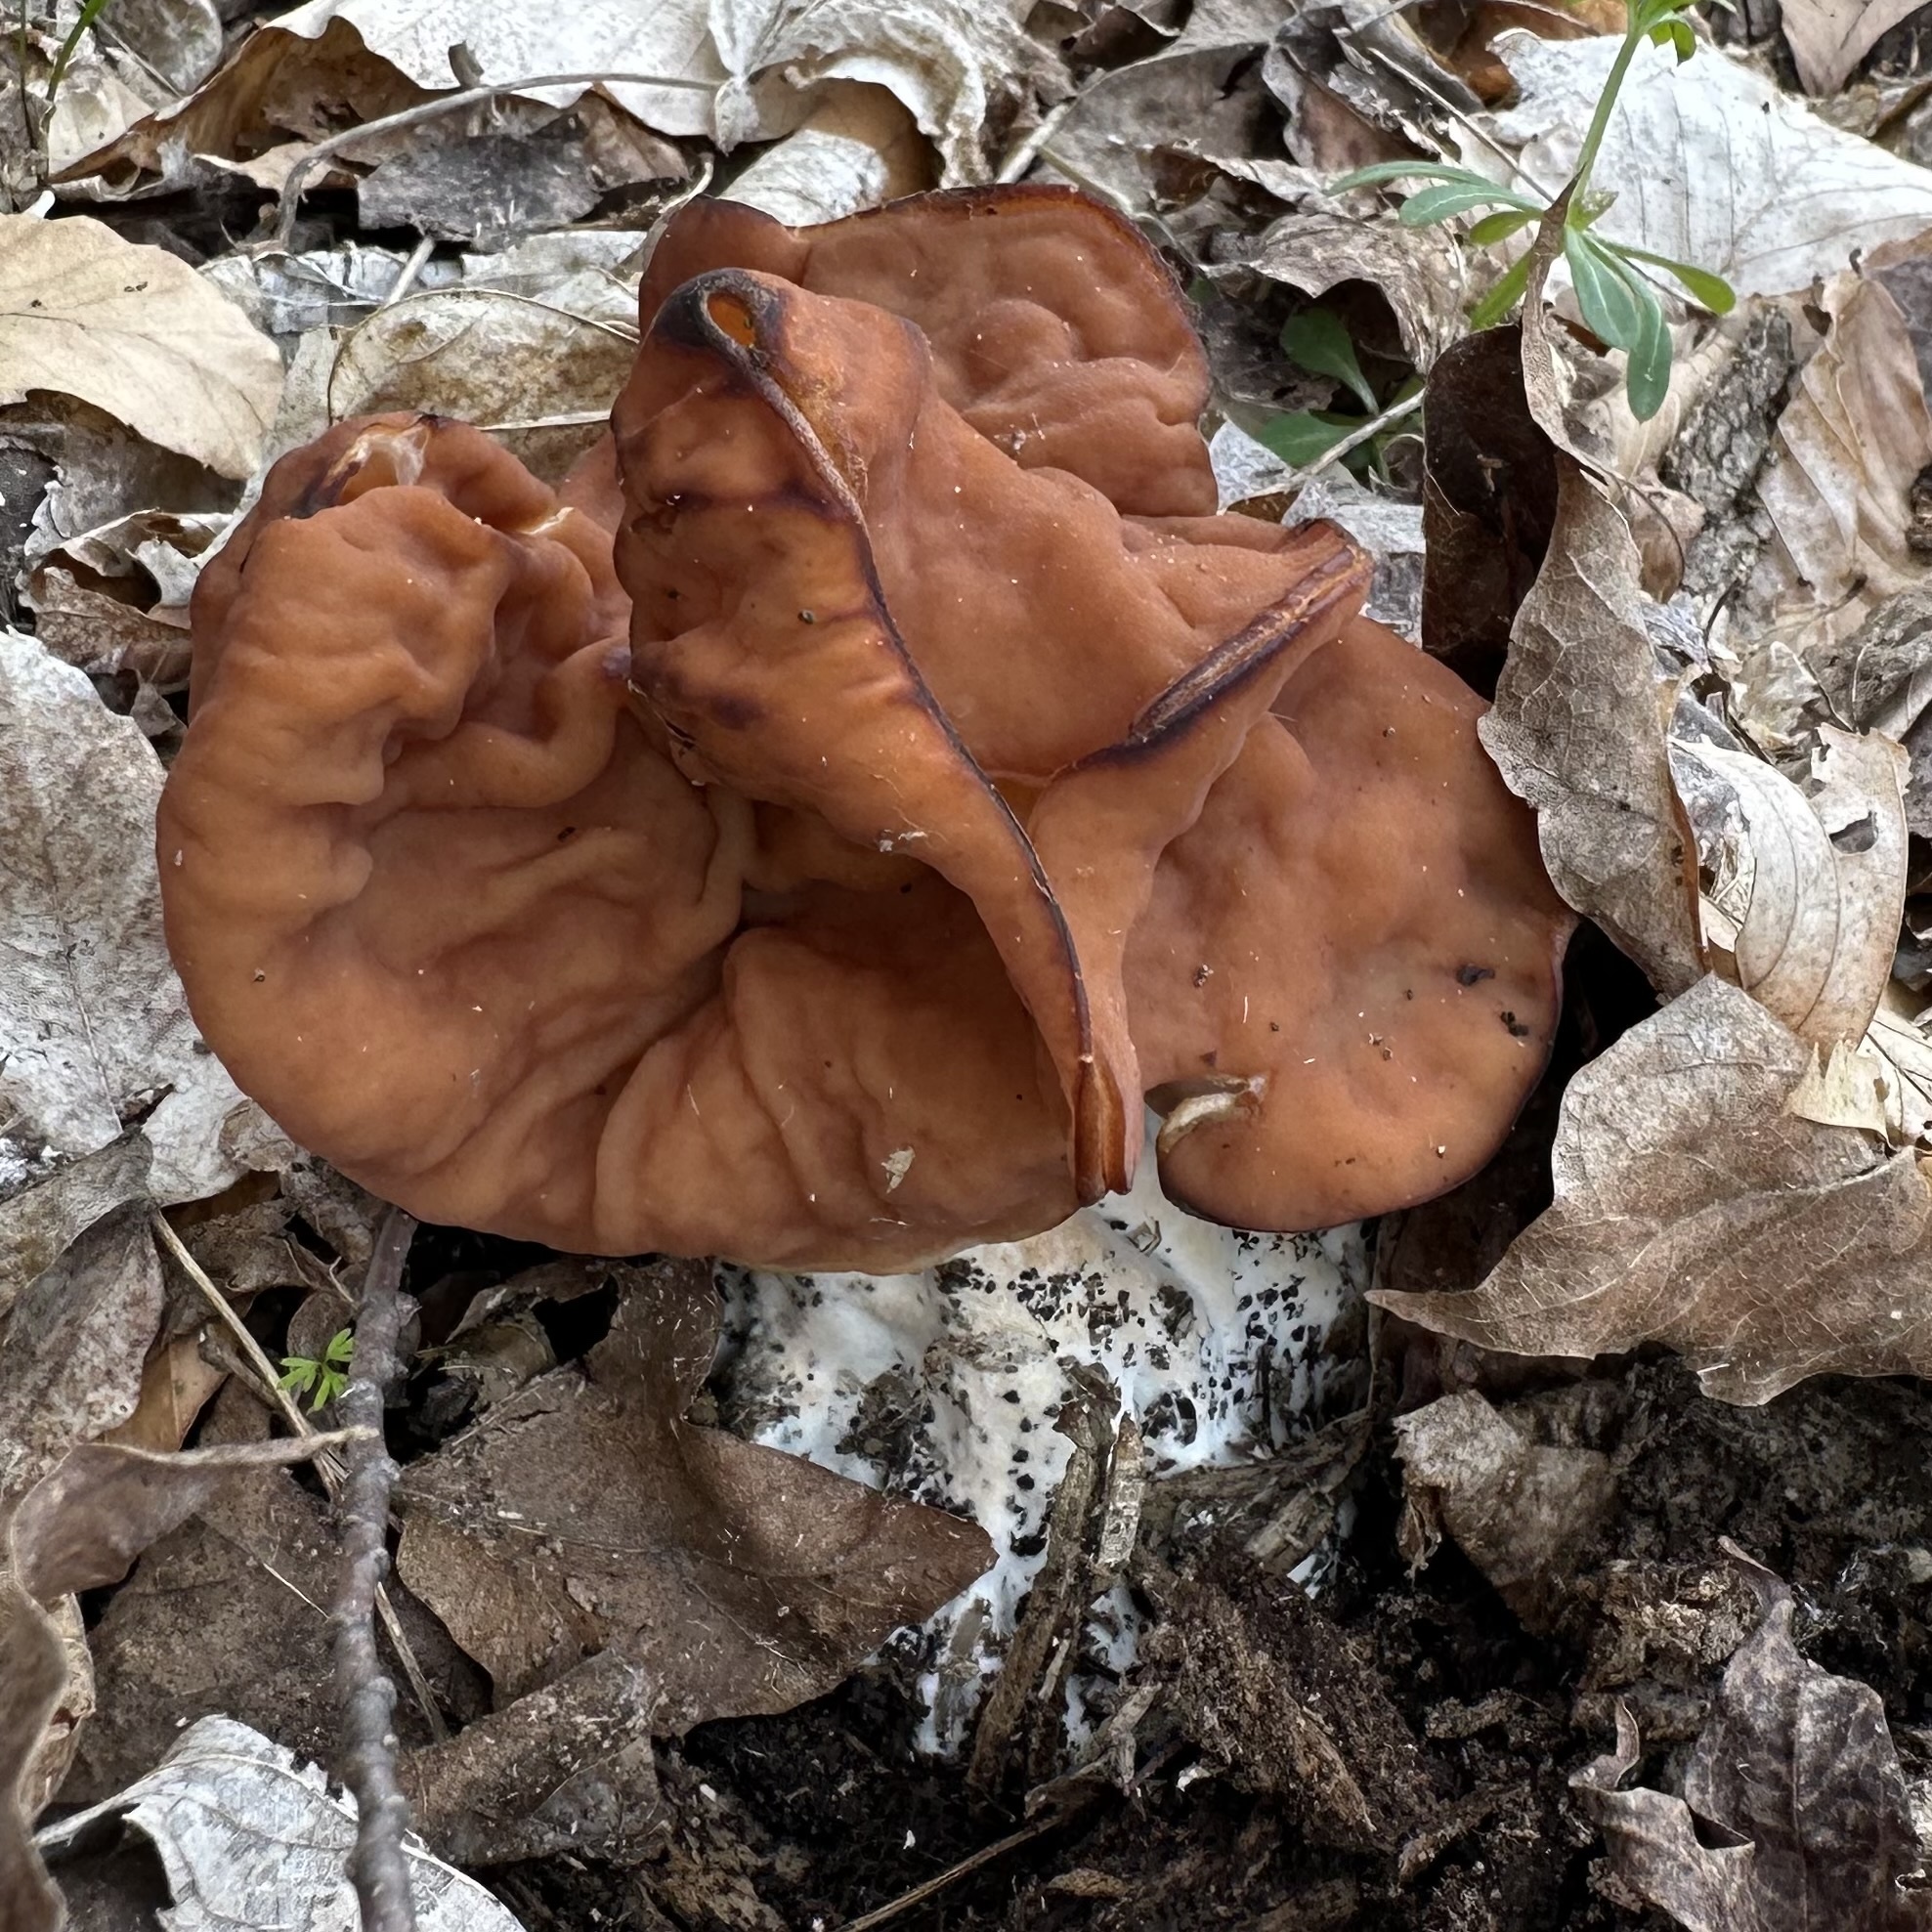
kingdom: Fungi
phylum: Ascomycota
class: Pezizomycetes
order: Pezizales
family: Discinaceae
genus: Discina
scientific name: Discina brunnea
